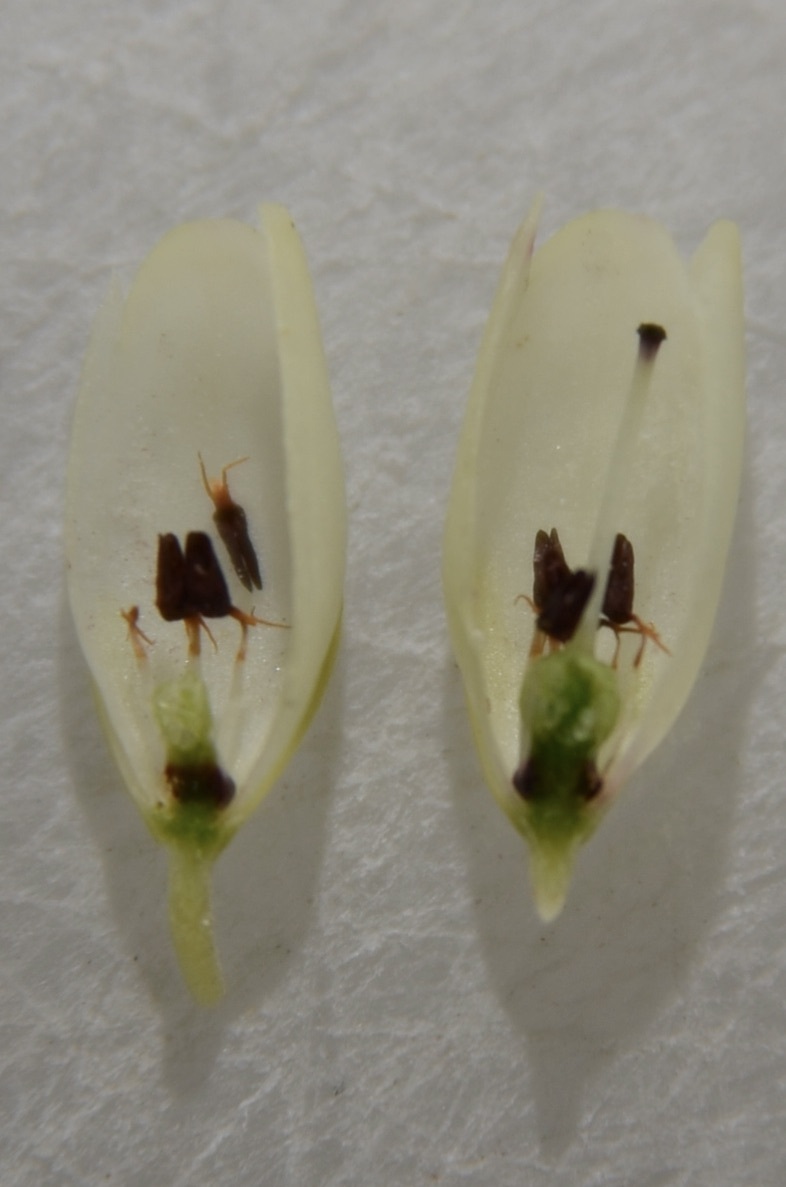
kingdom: Plantae
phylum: Tracheophyta
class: Magnoliopsida
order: Ericales
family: Ericaceae
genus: Erica
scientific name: Erica filipendula
